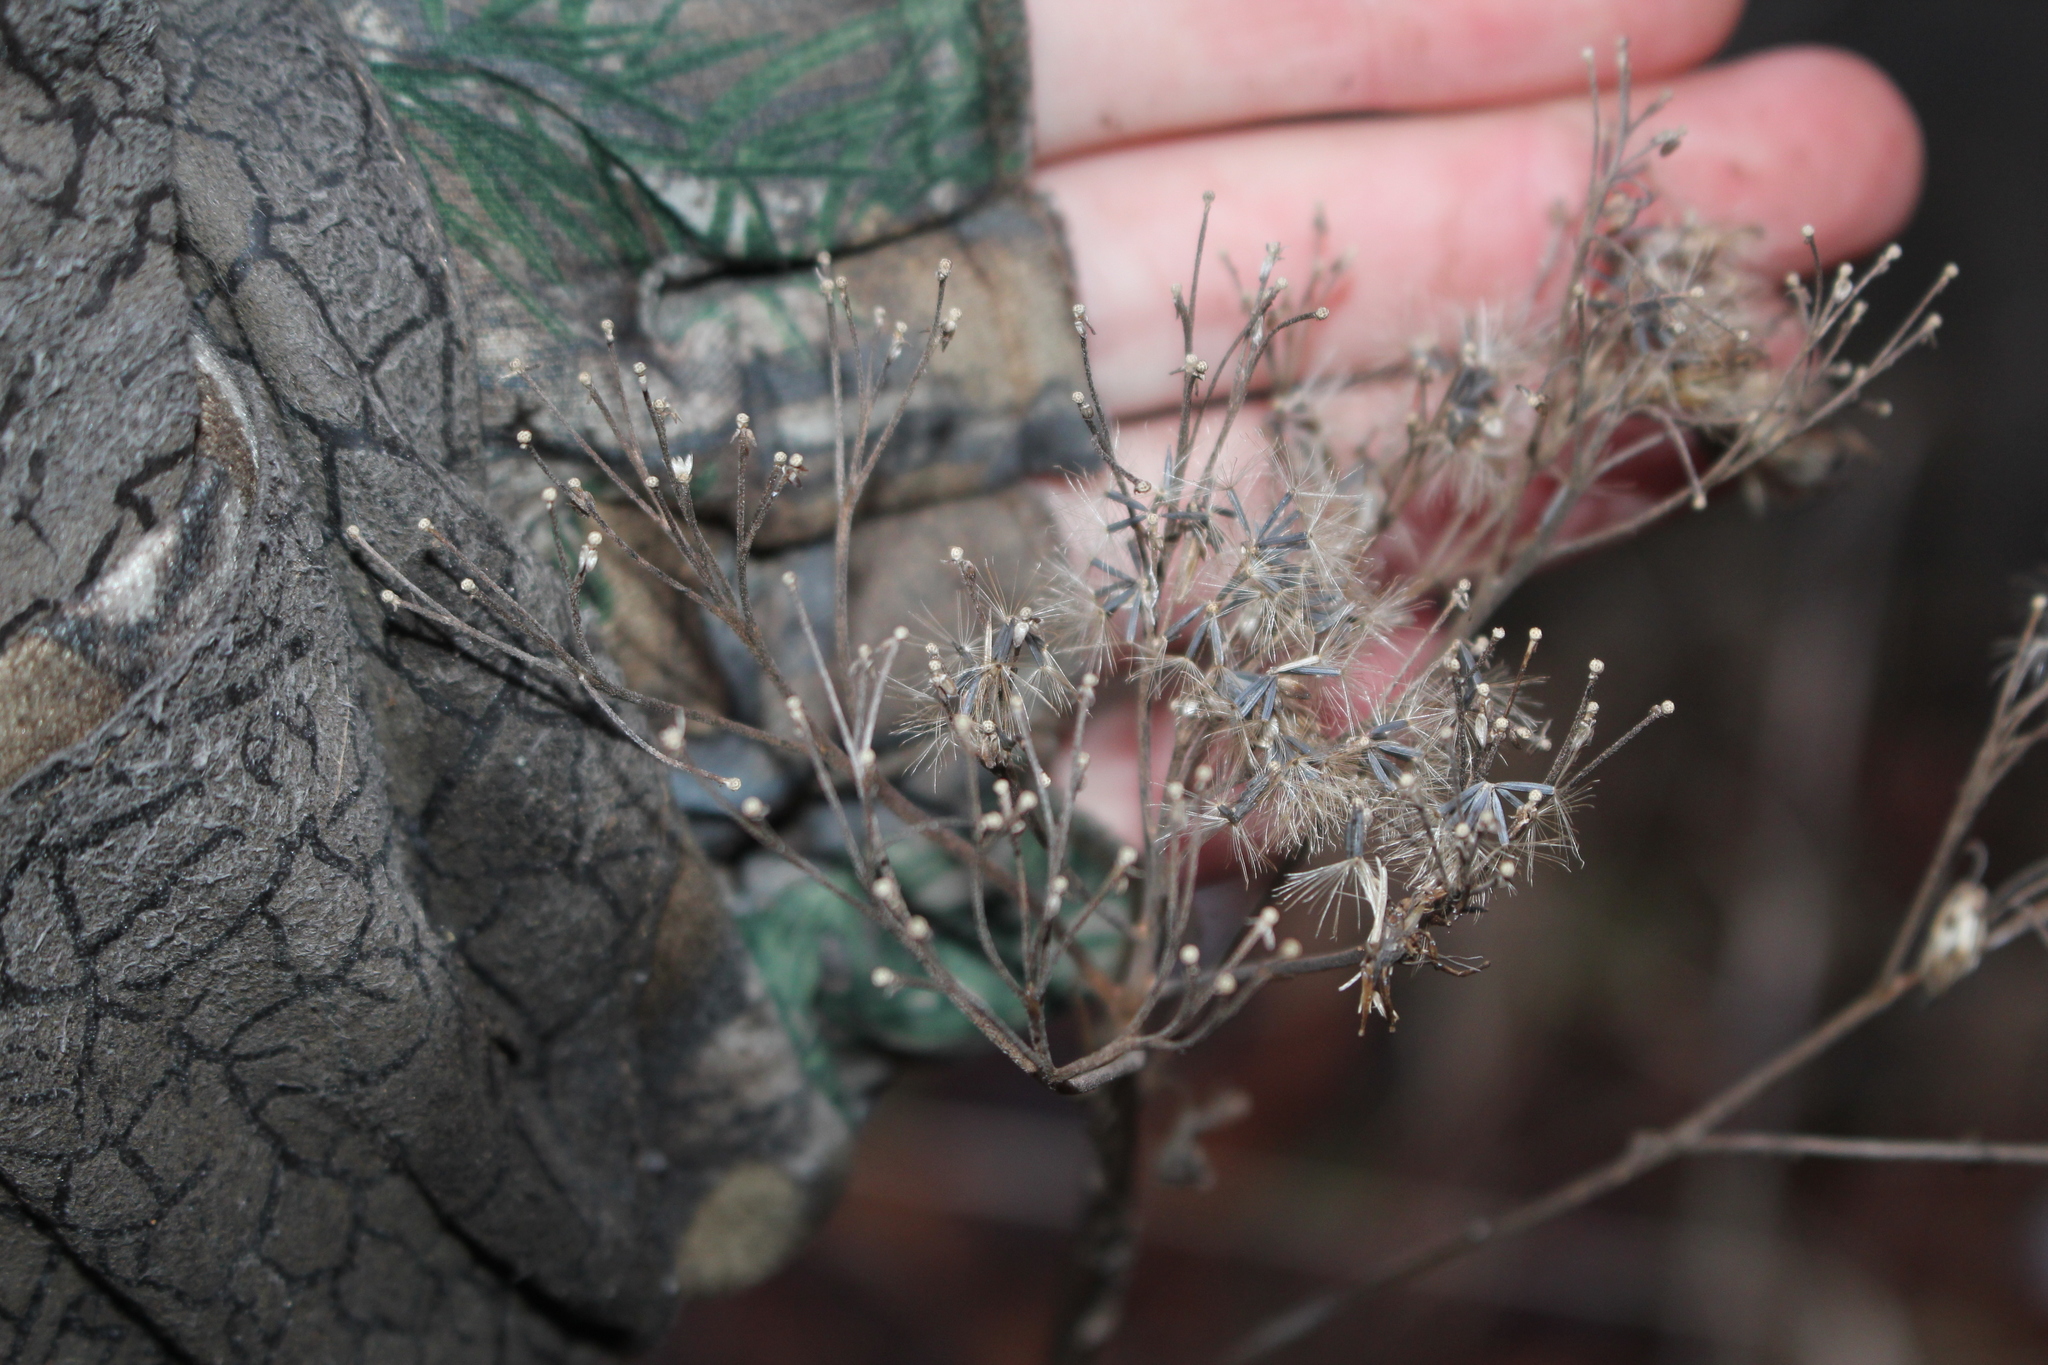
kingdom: Plantae
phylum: Tracheophyta
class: Magnoliopsida
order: Asterales
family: Asteraceae
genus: Eutrochium
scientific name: Eutrochium maculatum
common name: Spotted joe pye weed
